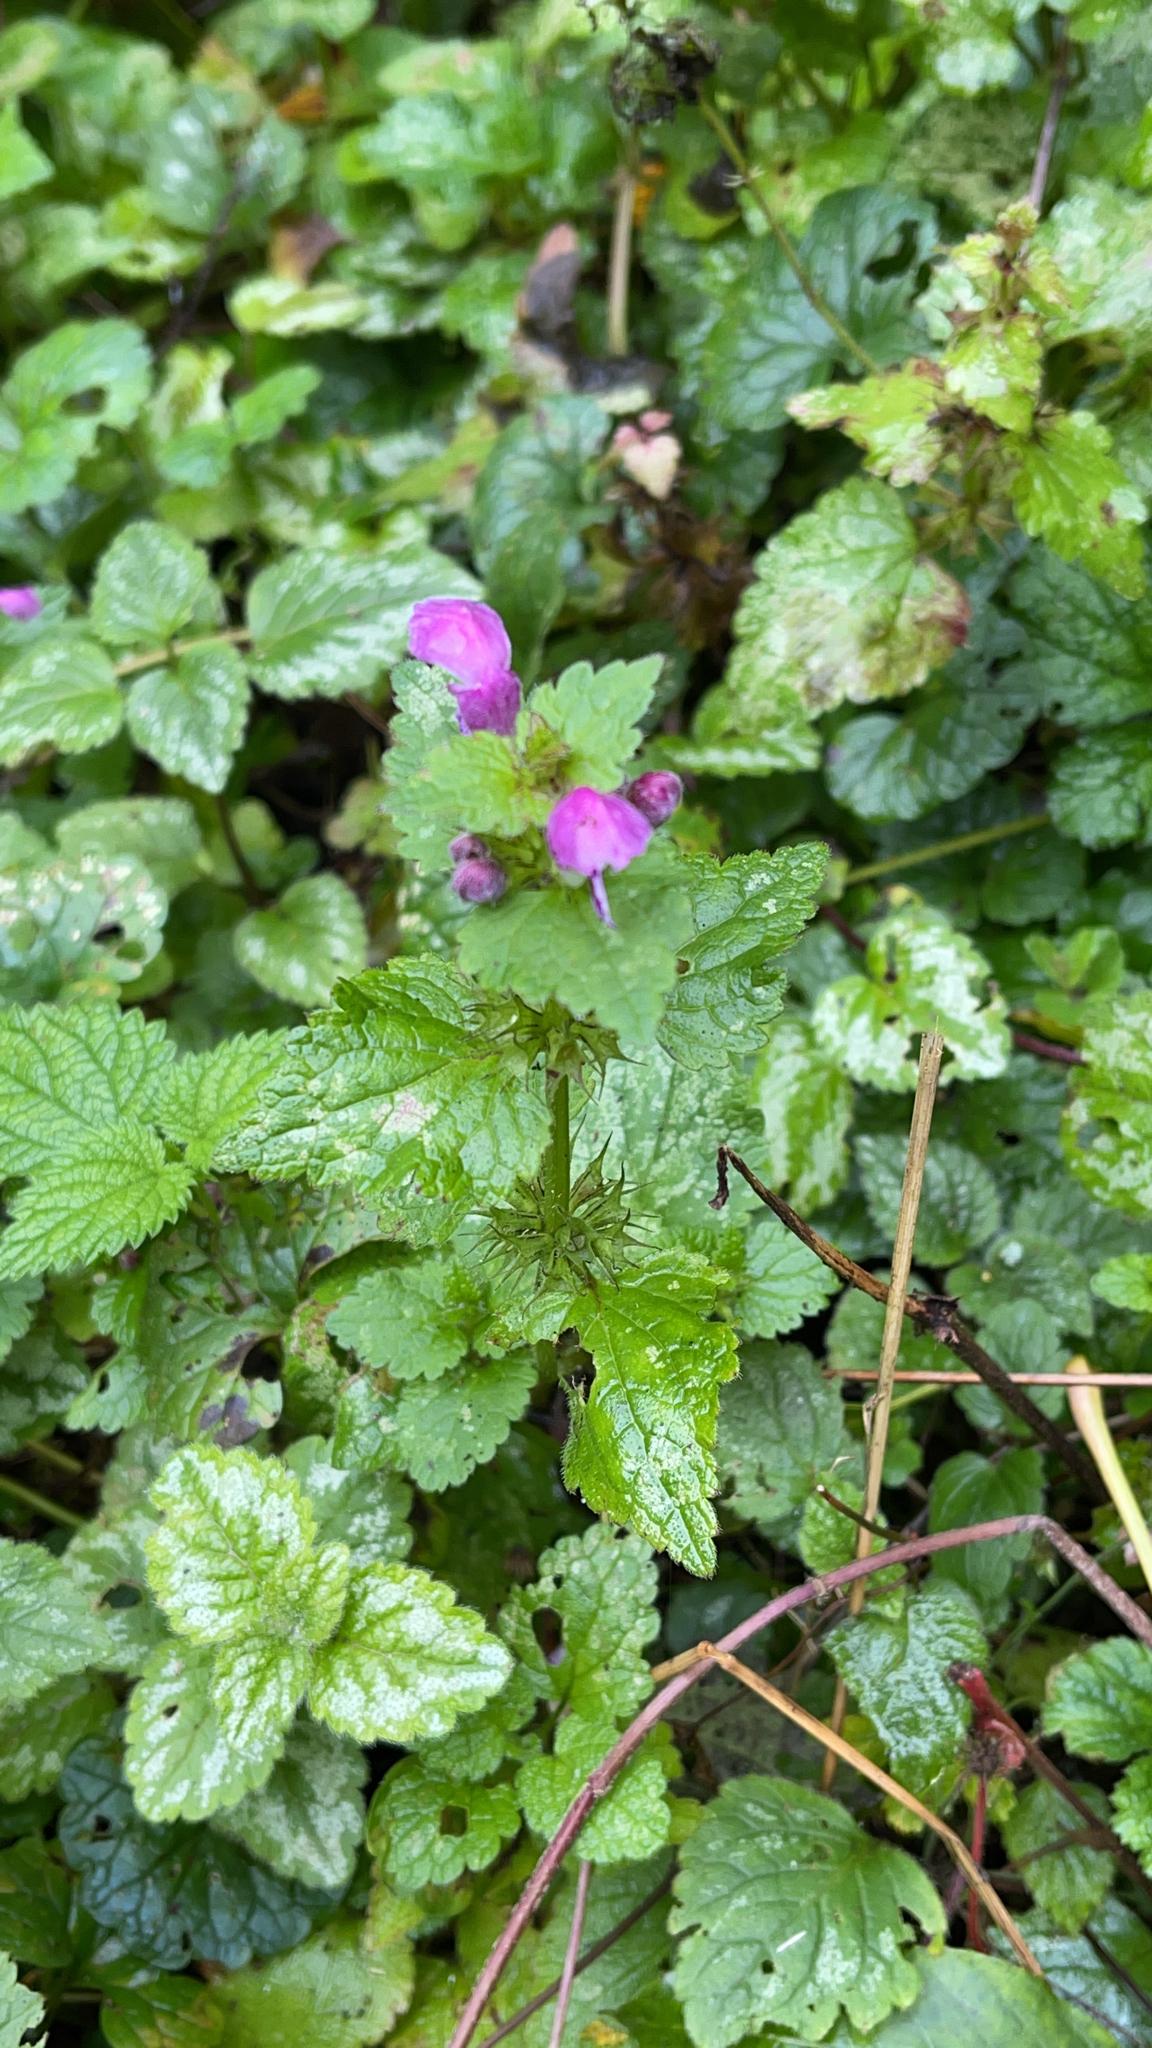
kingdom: Plantae
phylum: Tracheophyta
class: Magnoliopsida
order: Lamiales
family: Lamiaceae
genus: Lamium
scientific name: Lamium maculatum
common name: Spotted dead-nettle
